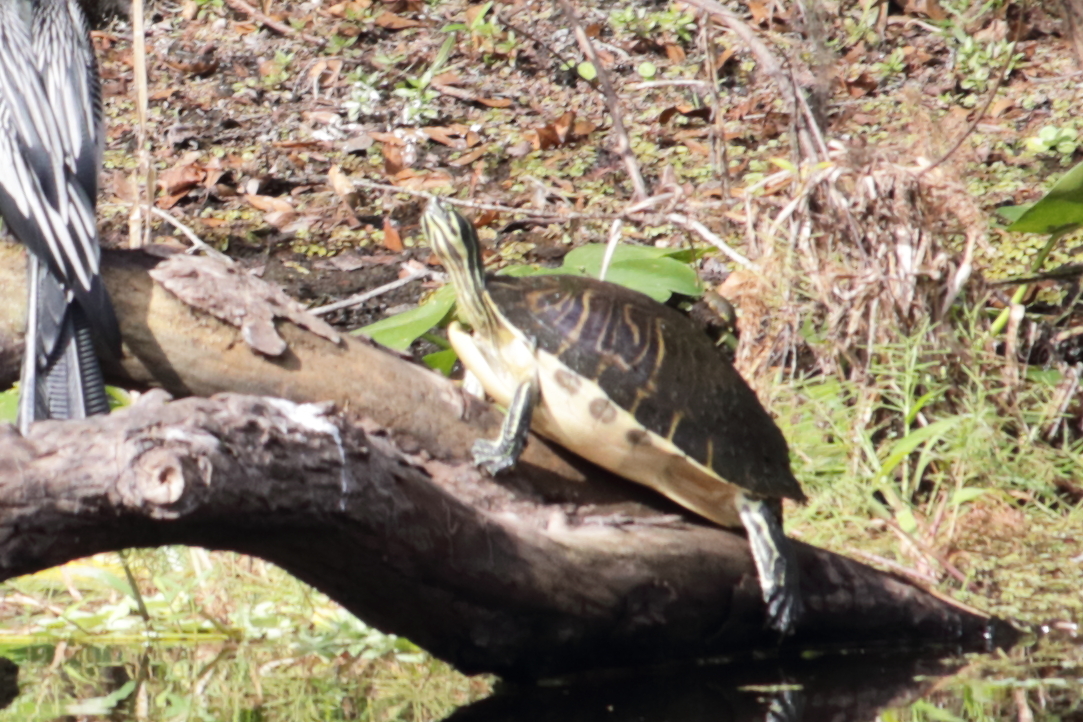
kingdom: Animalia
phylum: Chordata
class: Testudines
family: Emydidae
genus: Pseudemys
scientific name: Pseudemys peninsularis
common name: Peninsula cooter
